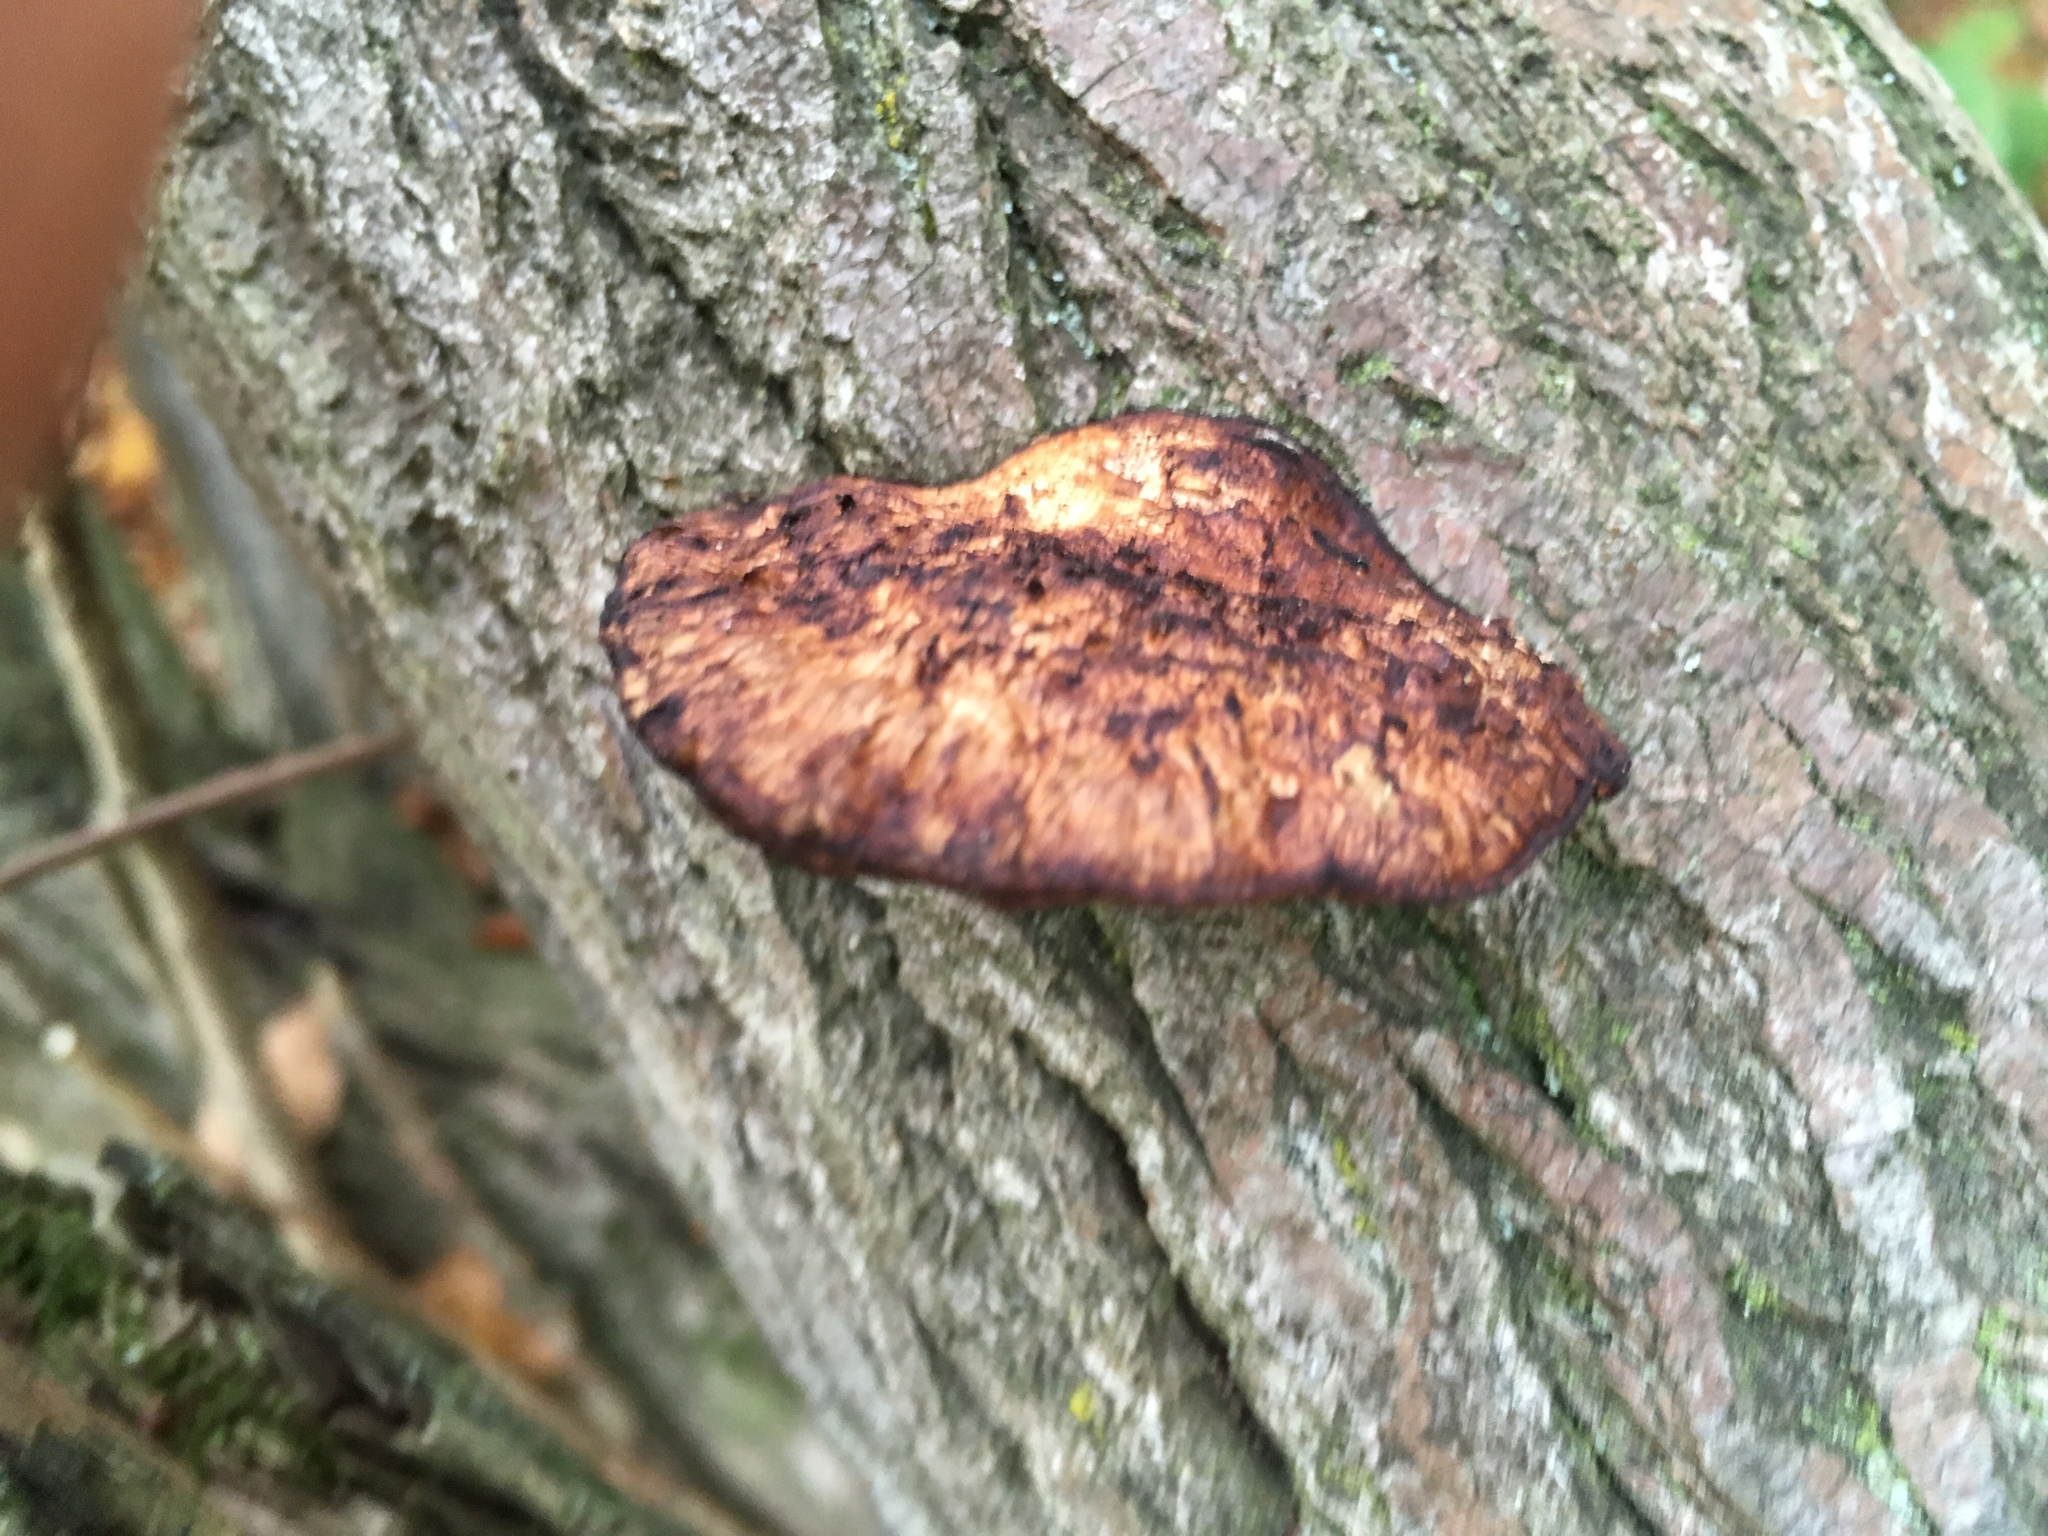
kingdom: Fungi
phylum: Basidiomycota
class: Agaricomycetes
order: Polyporales
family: Polyporaceae
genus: Daedaleopsis
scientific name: Daedaleopsis confragosa
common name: Blushing bracket
